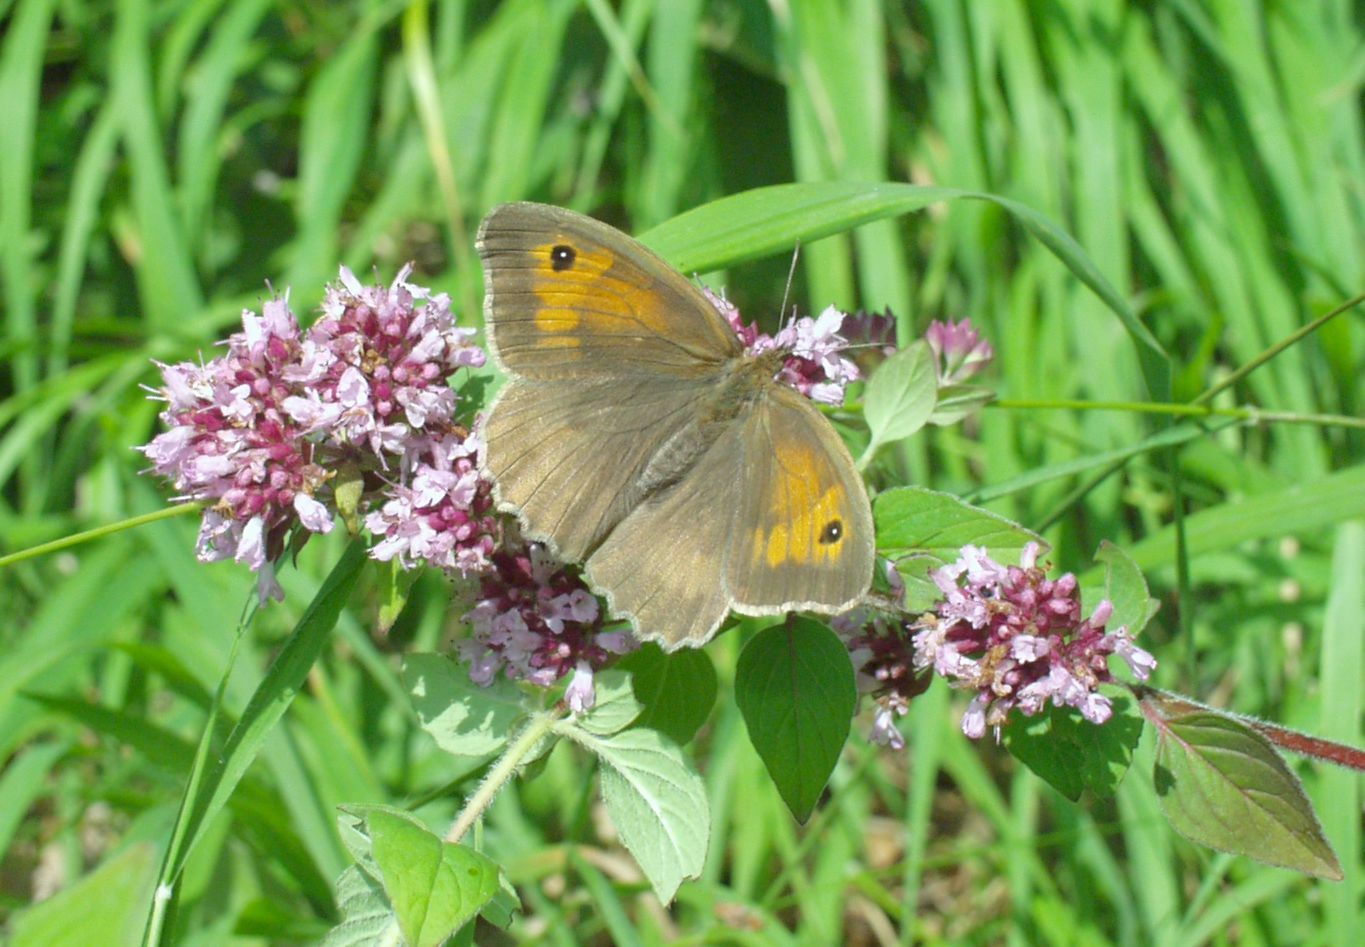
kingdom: Animalia
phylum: Arthropoda
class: Insecta
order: Lepidoptera
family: Nymphalidae
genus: Maniola
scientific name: Maniola jurtina
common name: Meadow brown
